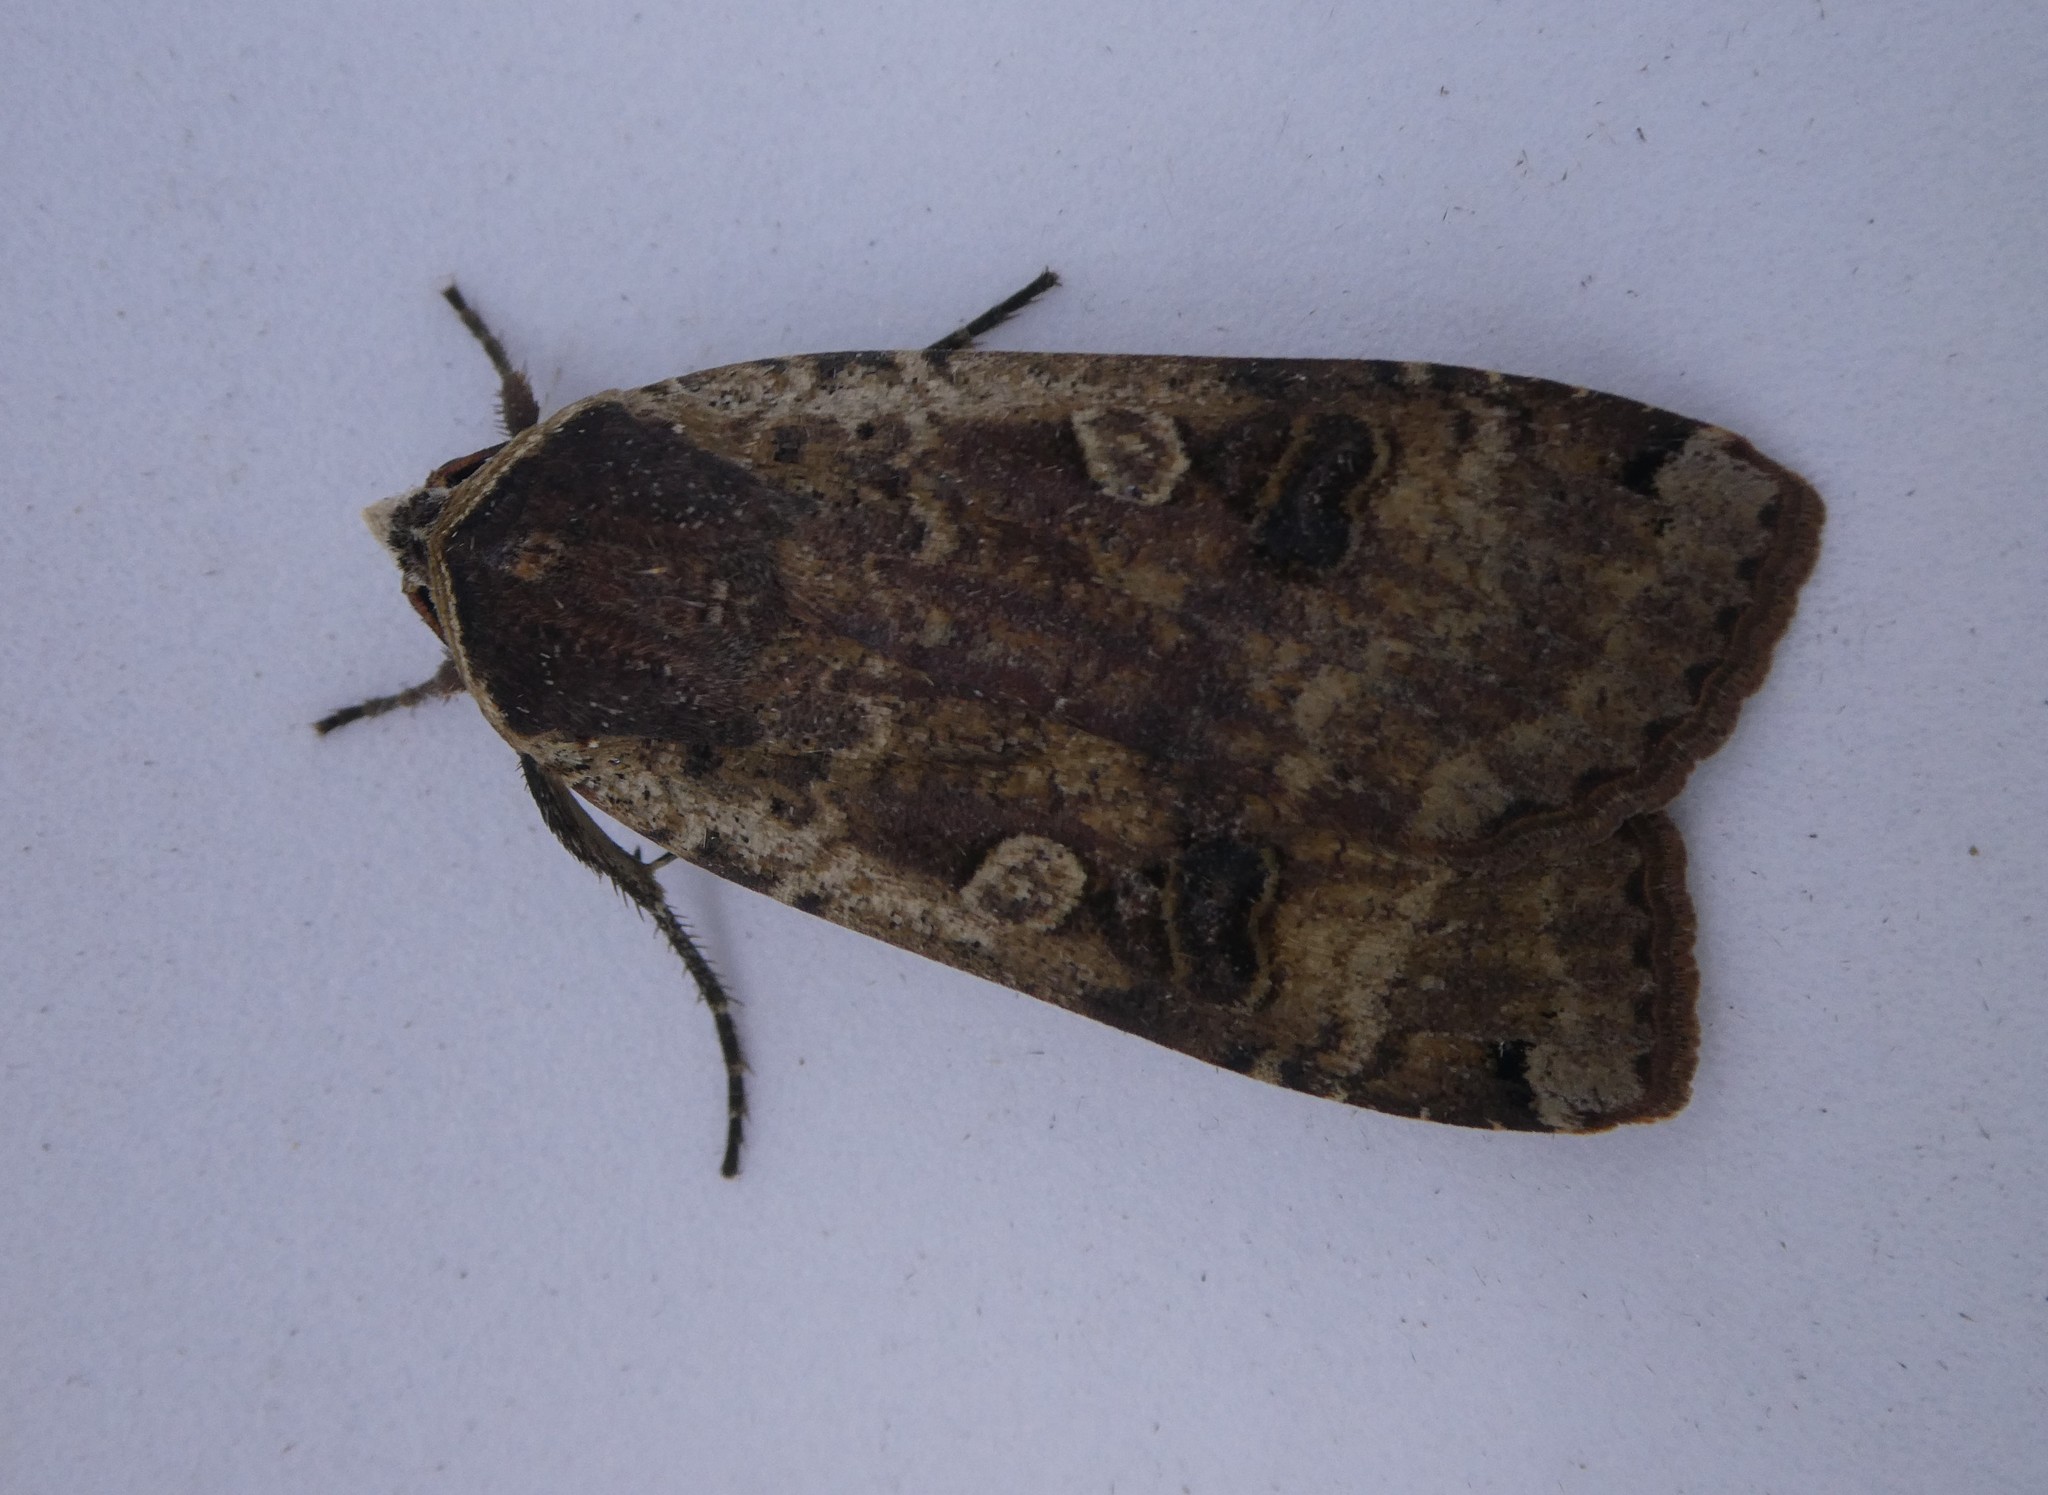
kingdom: Animalia
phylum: Arthropoda
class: Insecta
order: Lepidoptera
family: Noctuidae
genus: Noctua
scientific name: Noctua pronuba
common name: Large yellow underwing
